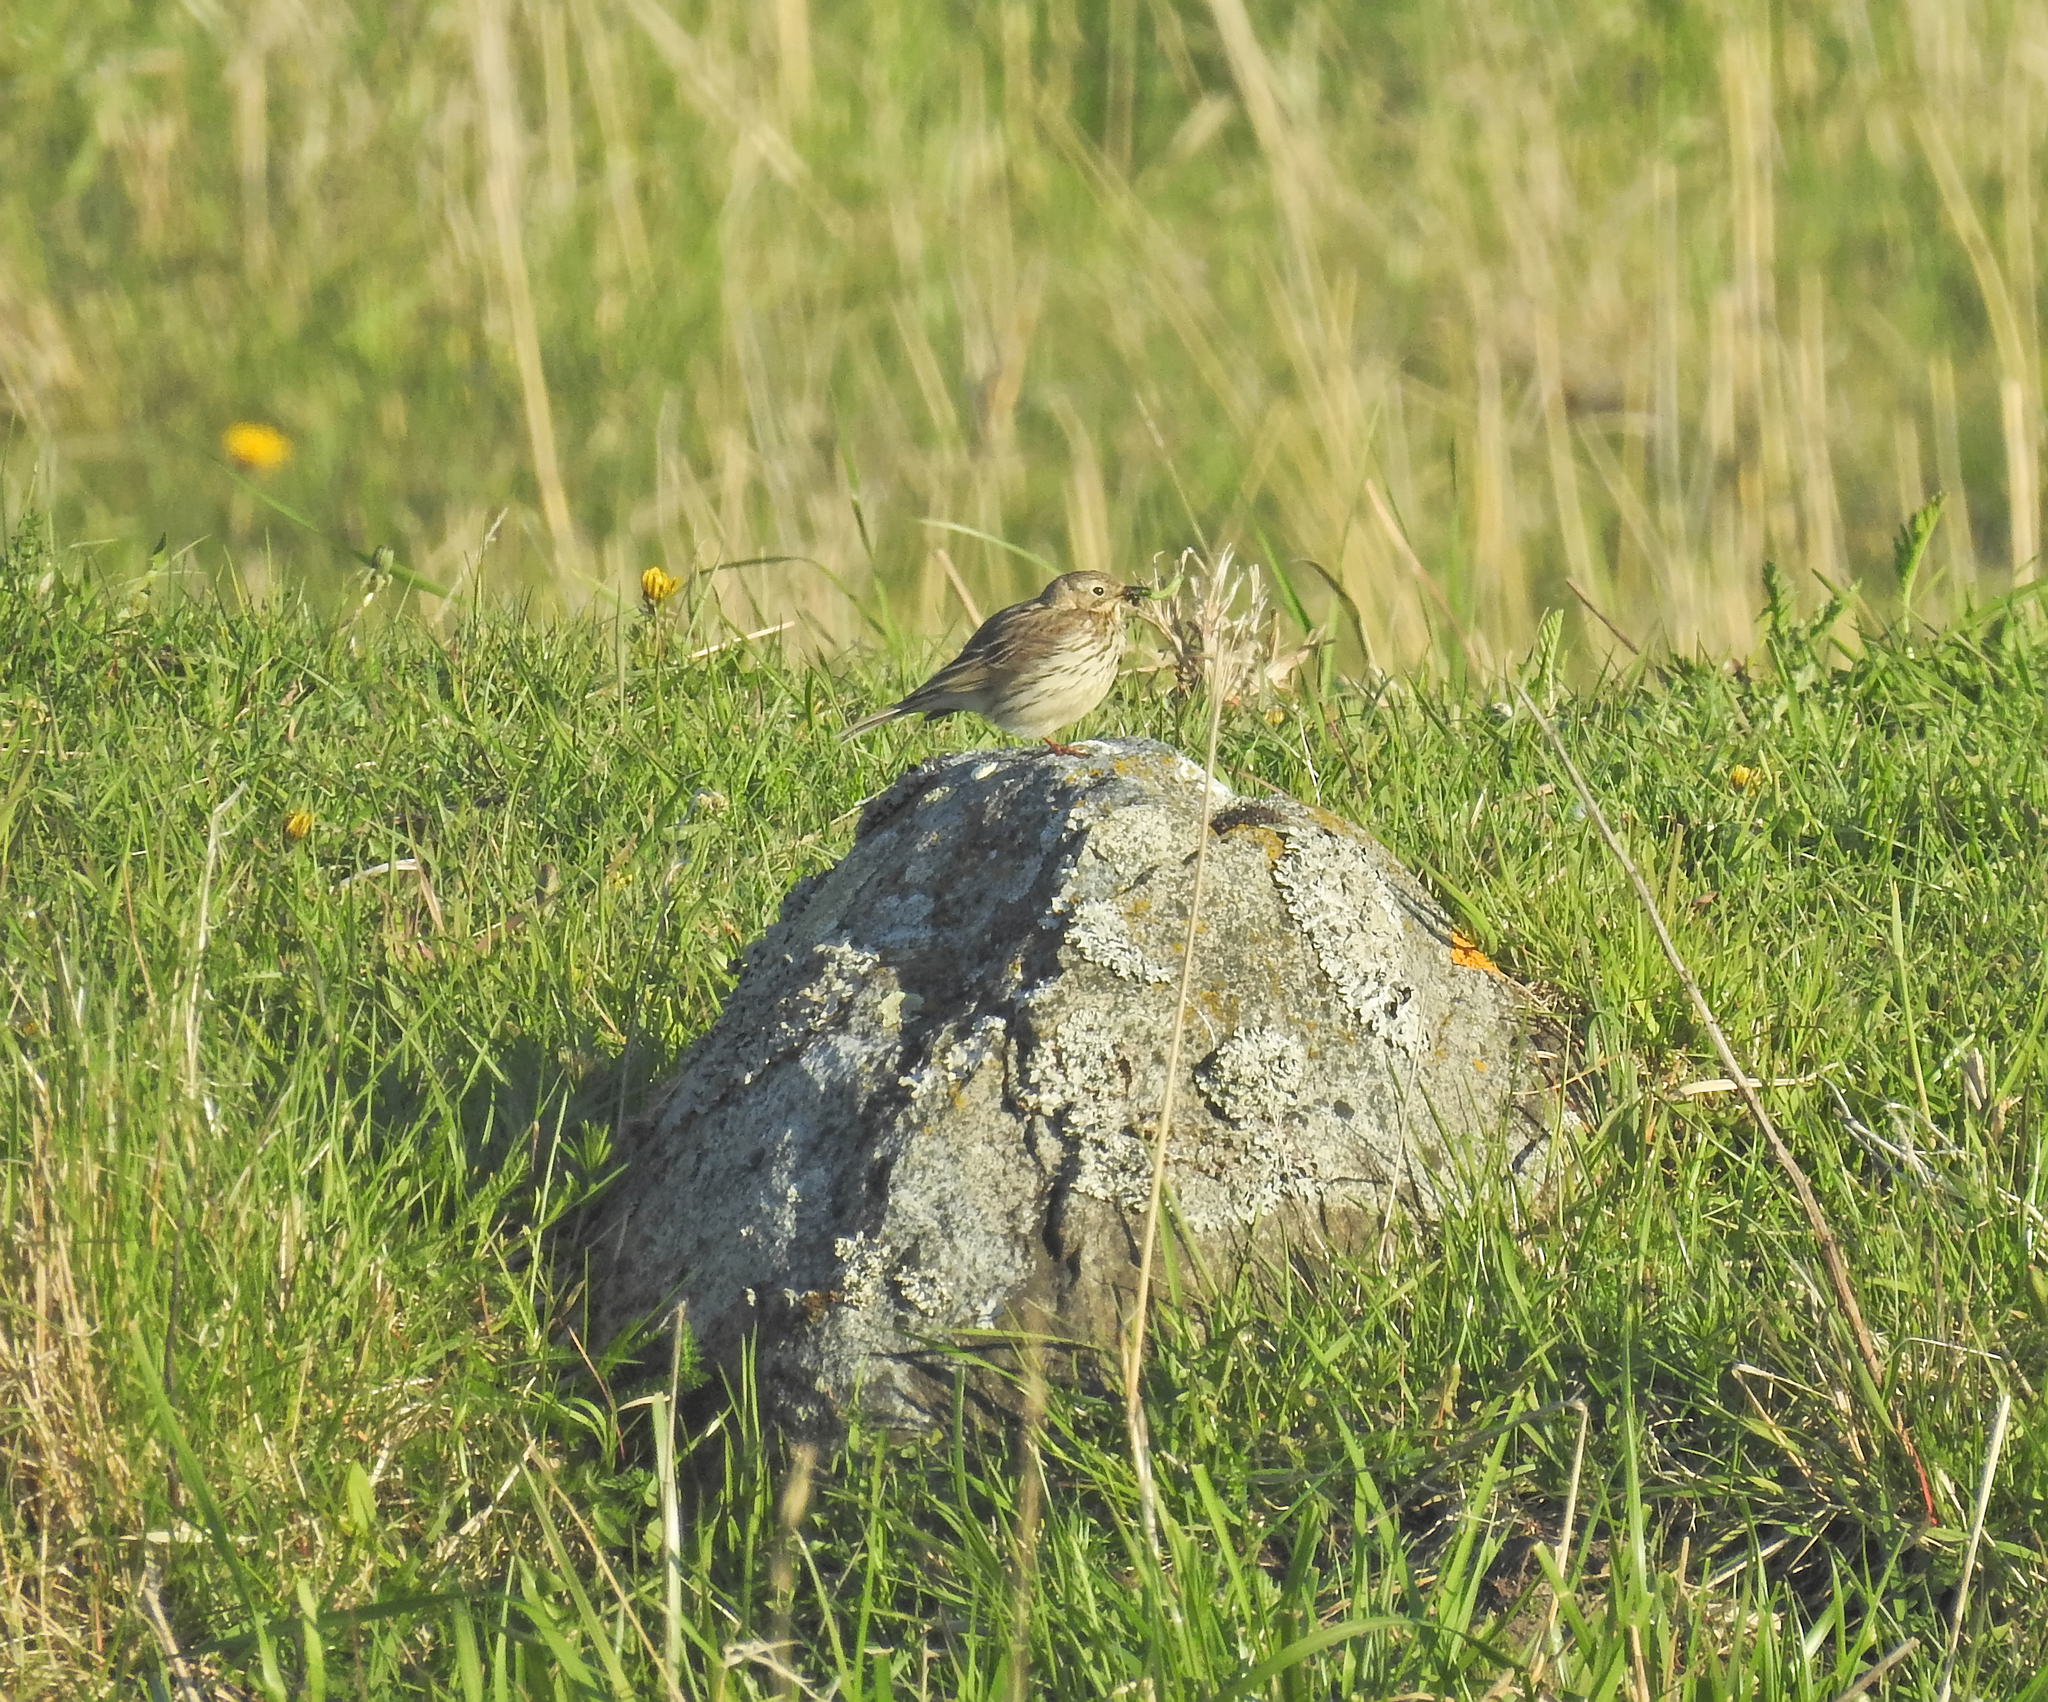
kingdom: Animalia
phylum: Chordata
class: Aves
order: Passeriformes
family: Motacillidae
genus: Anthus
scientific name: Anthus pratensis
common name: Meadow pipit
